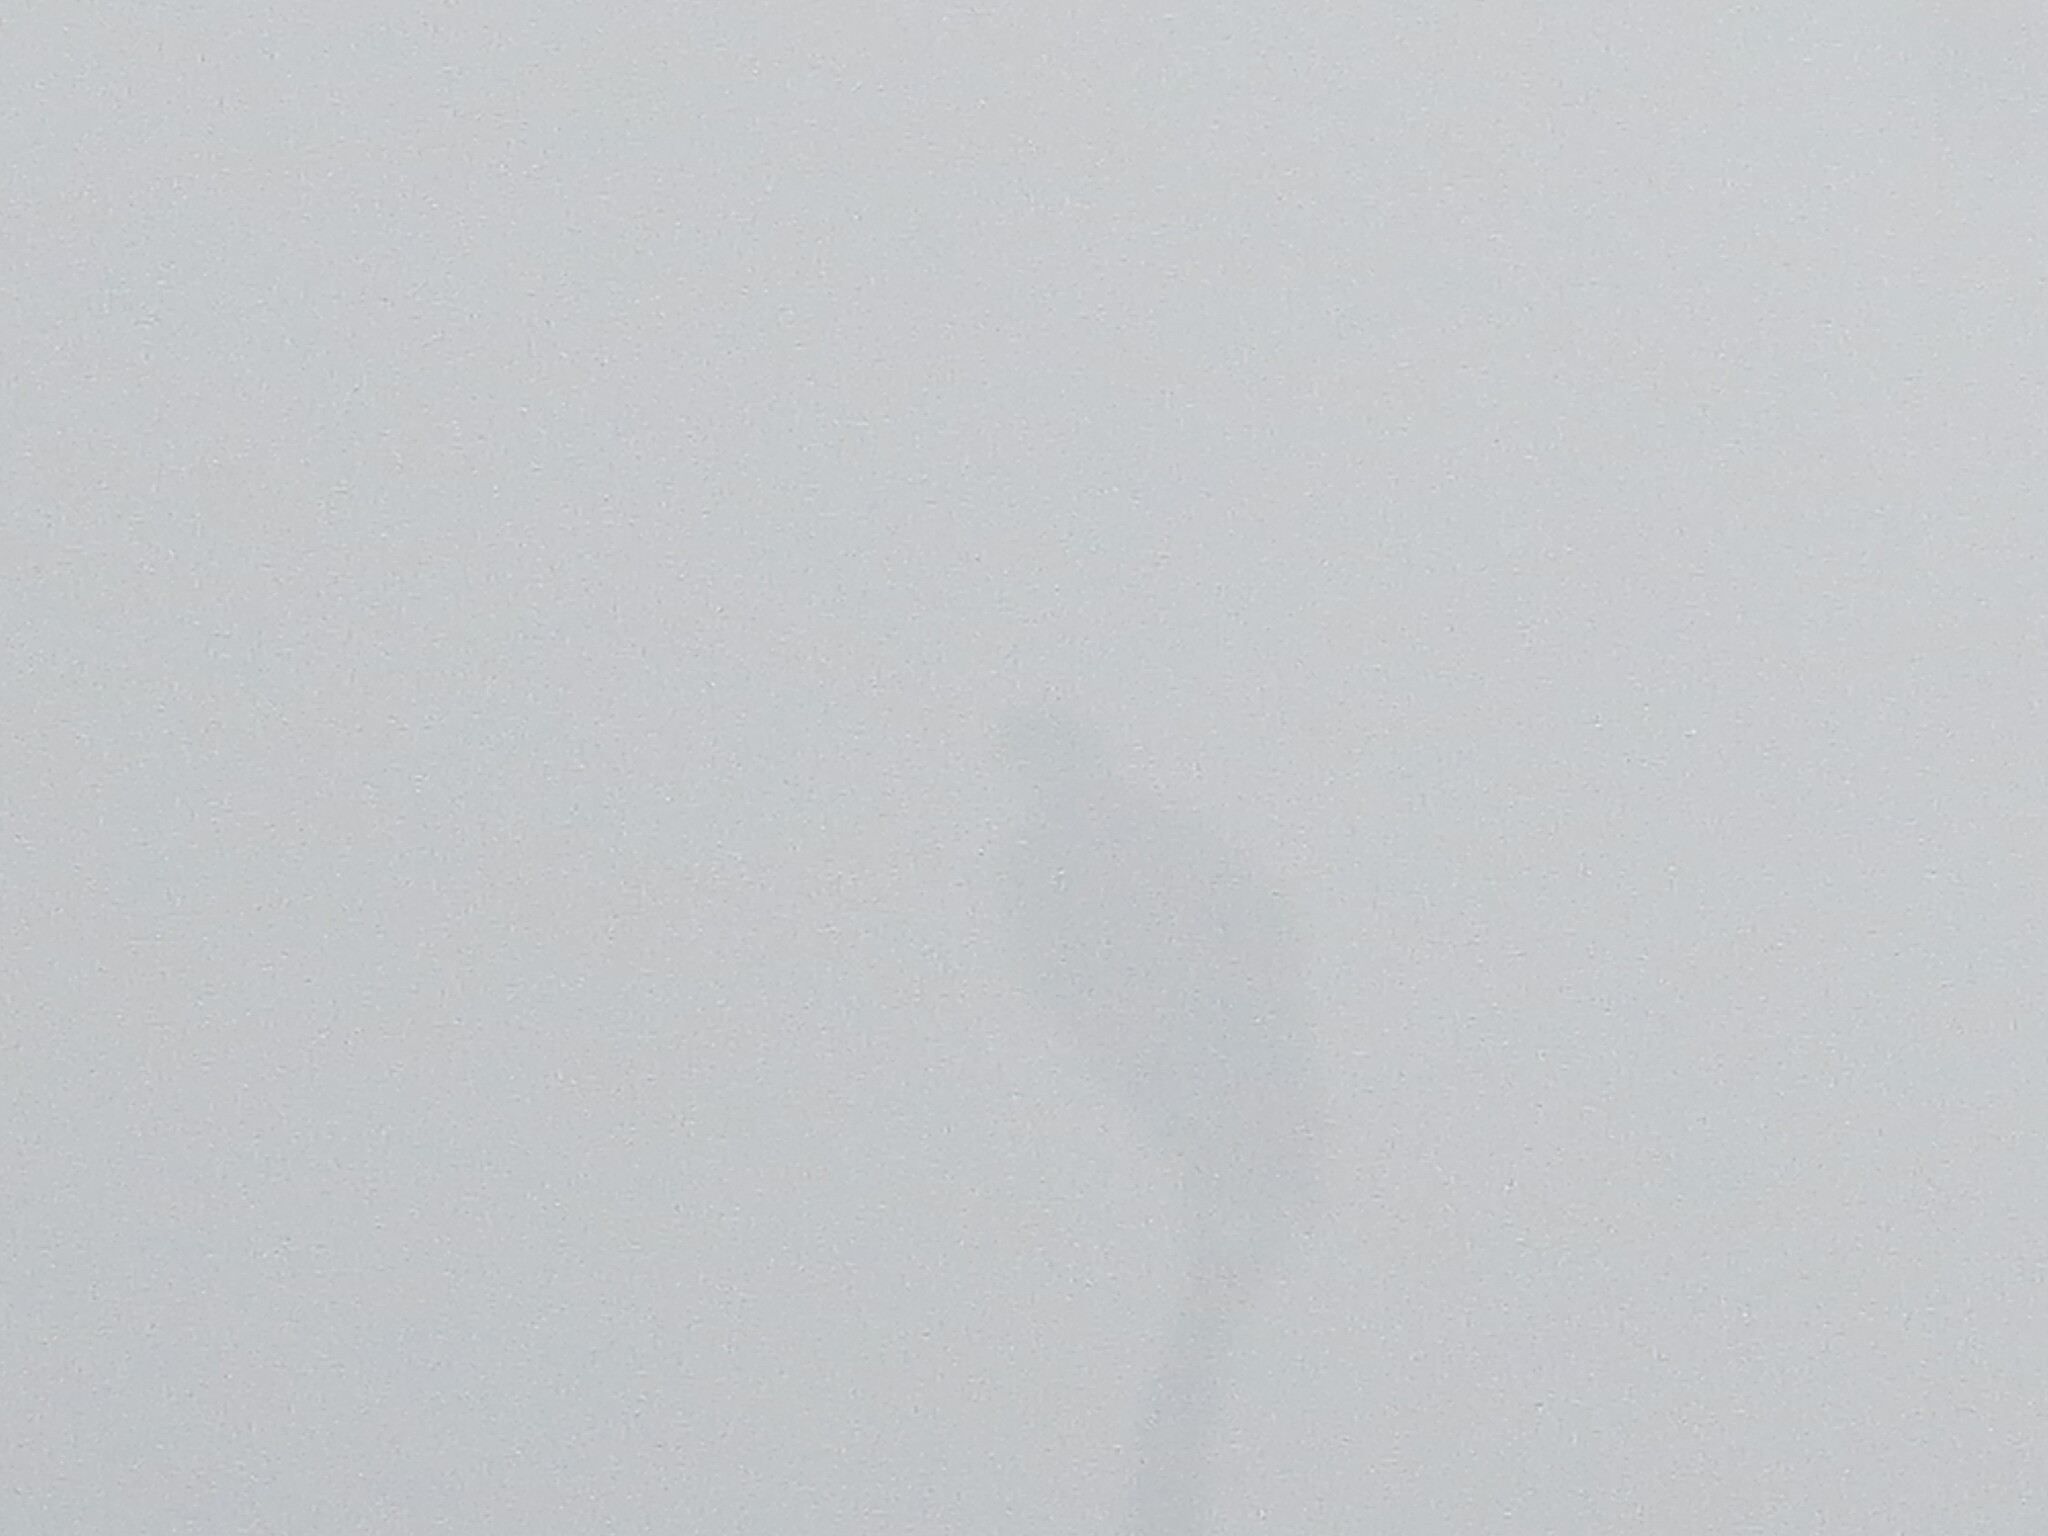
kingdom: Animalia
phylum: Chordata
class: Aves
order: Accipitriformes
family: Pandionidae
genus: Pandion
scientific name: Pandion haliaetus
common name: Osprey
